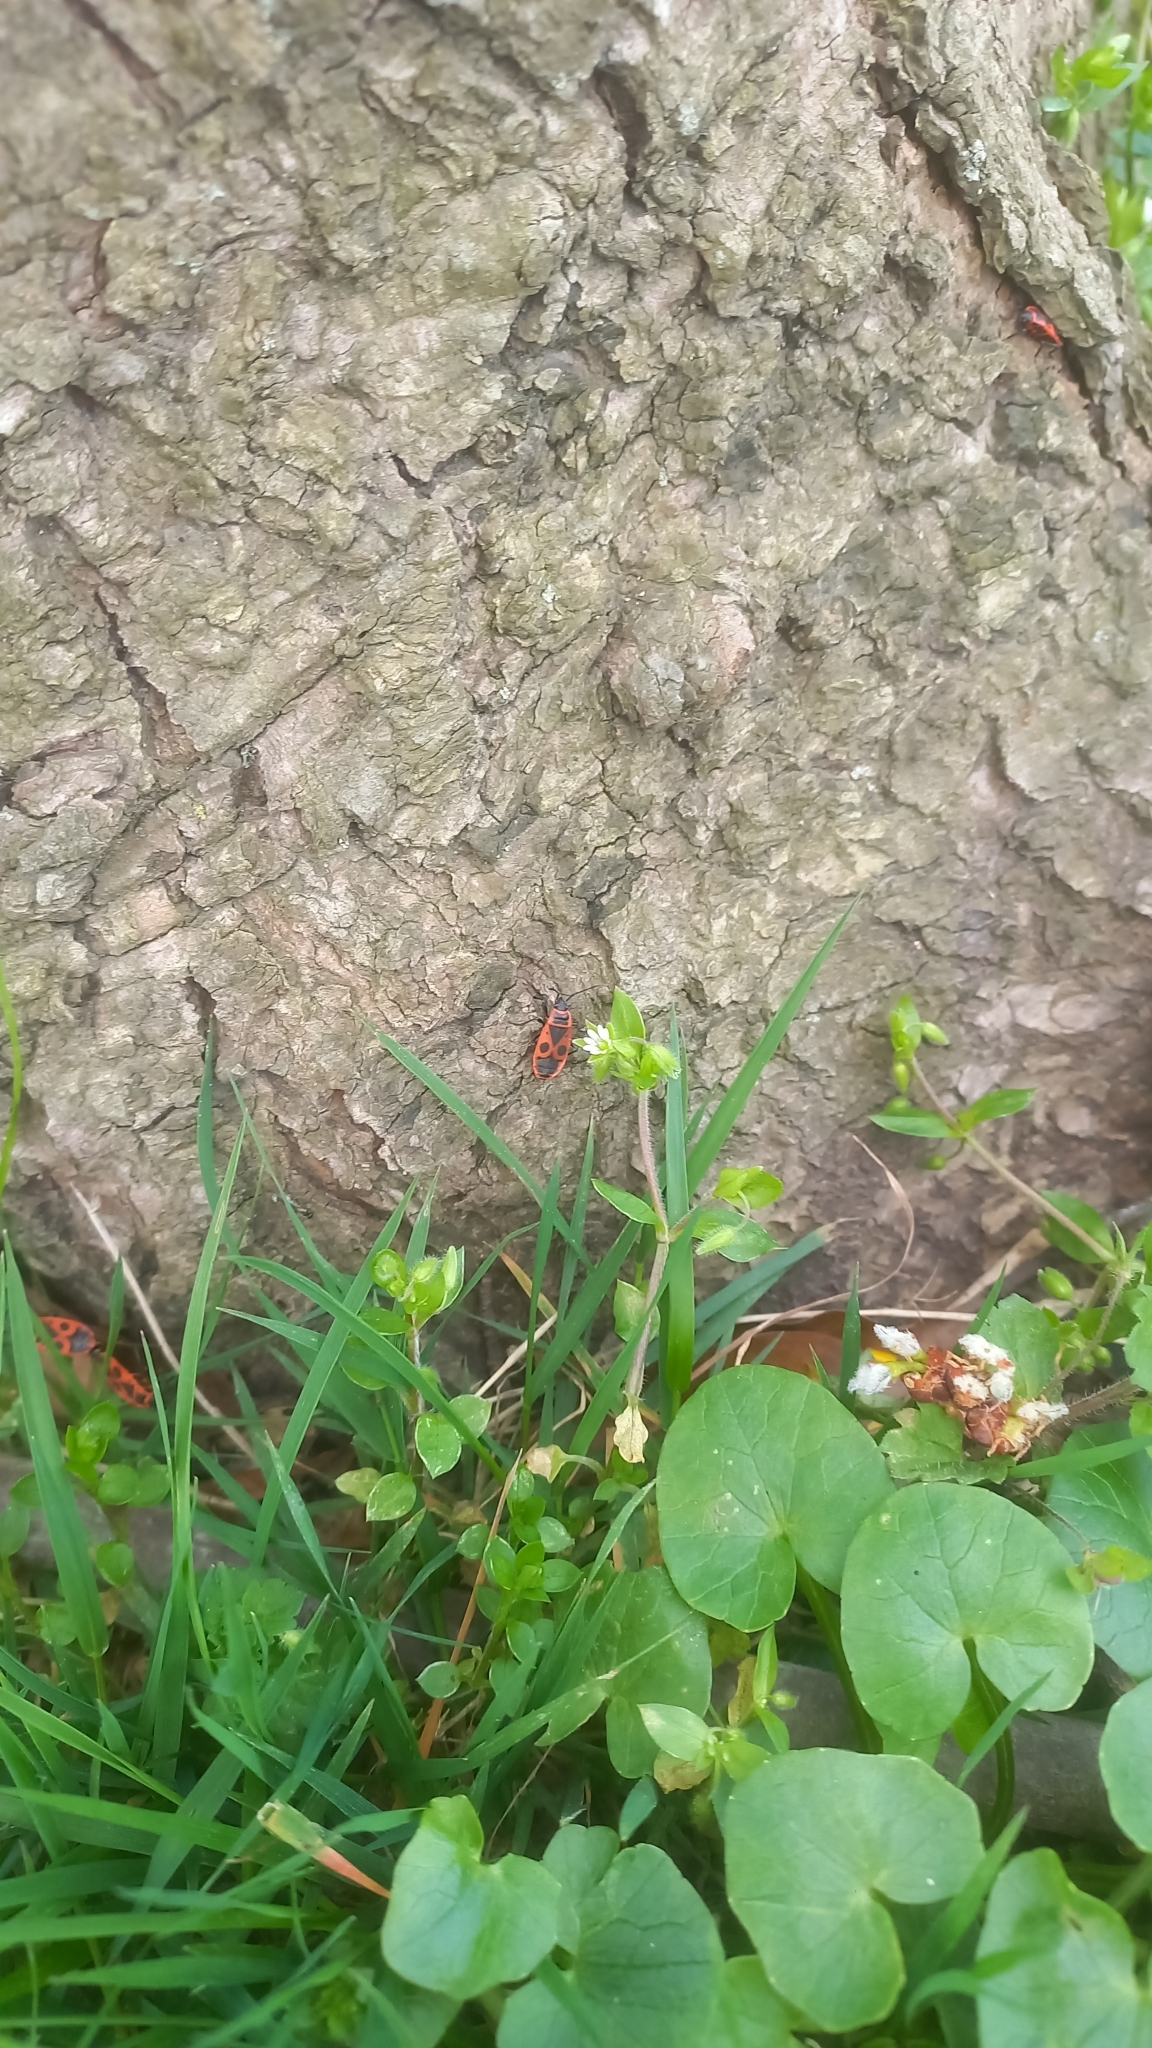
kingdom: Animalia
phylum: Arthropoda
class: Insecta
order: Hemiptera
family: Pyrrhocoridae
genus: Pyrrhocoris
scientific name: Pyrrhocoris apterus
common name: Firebug
